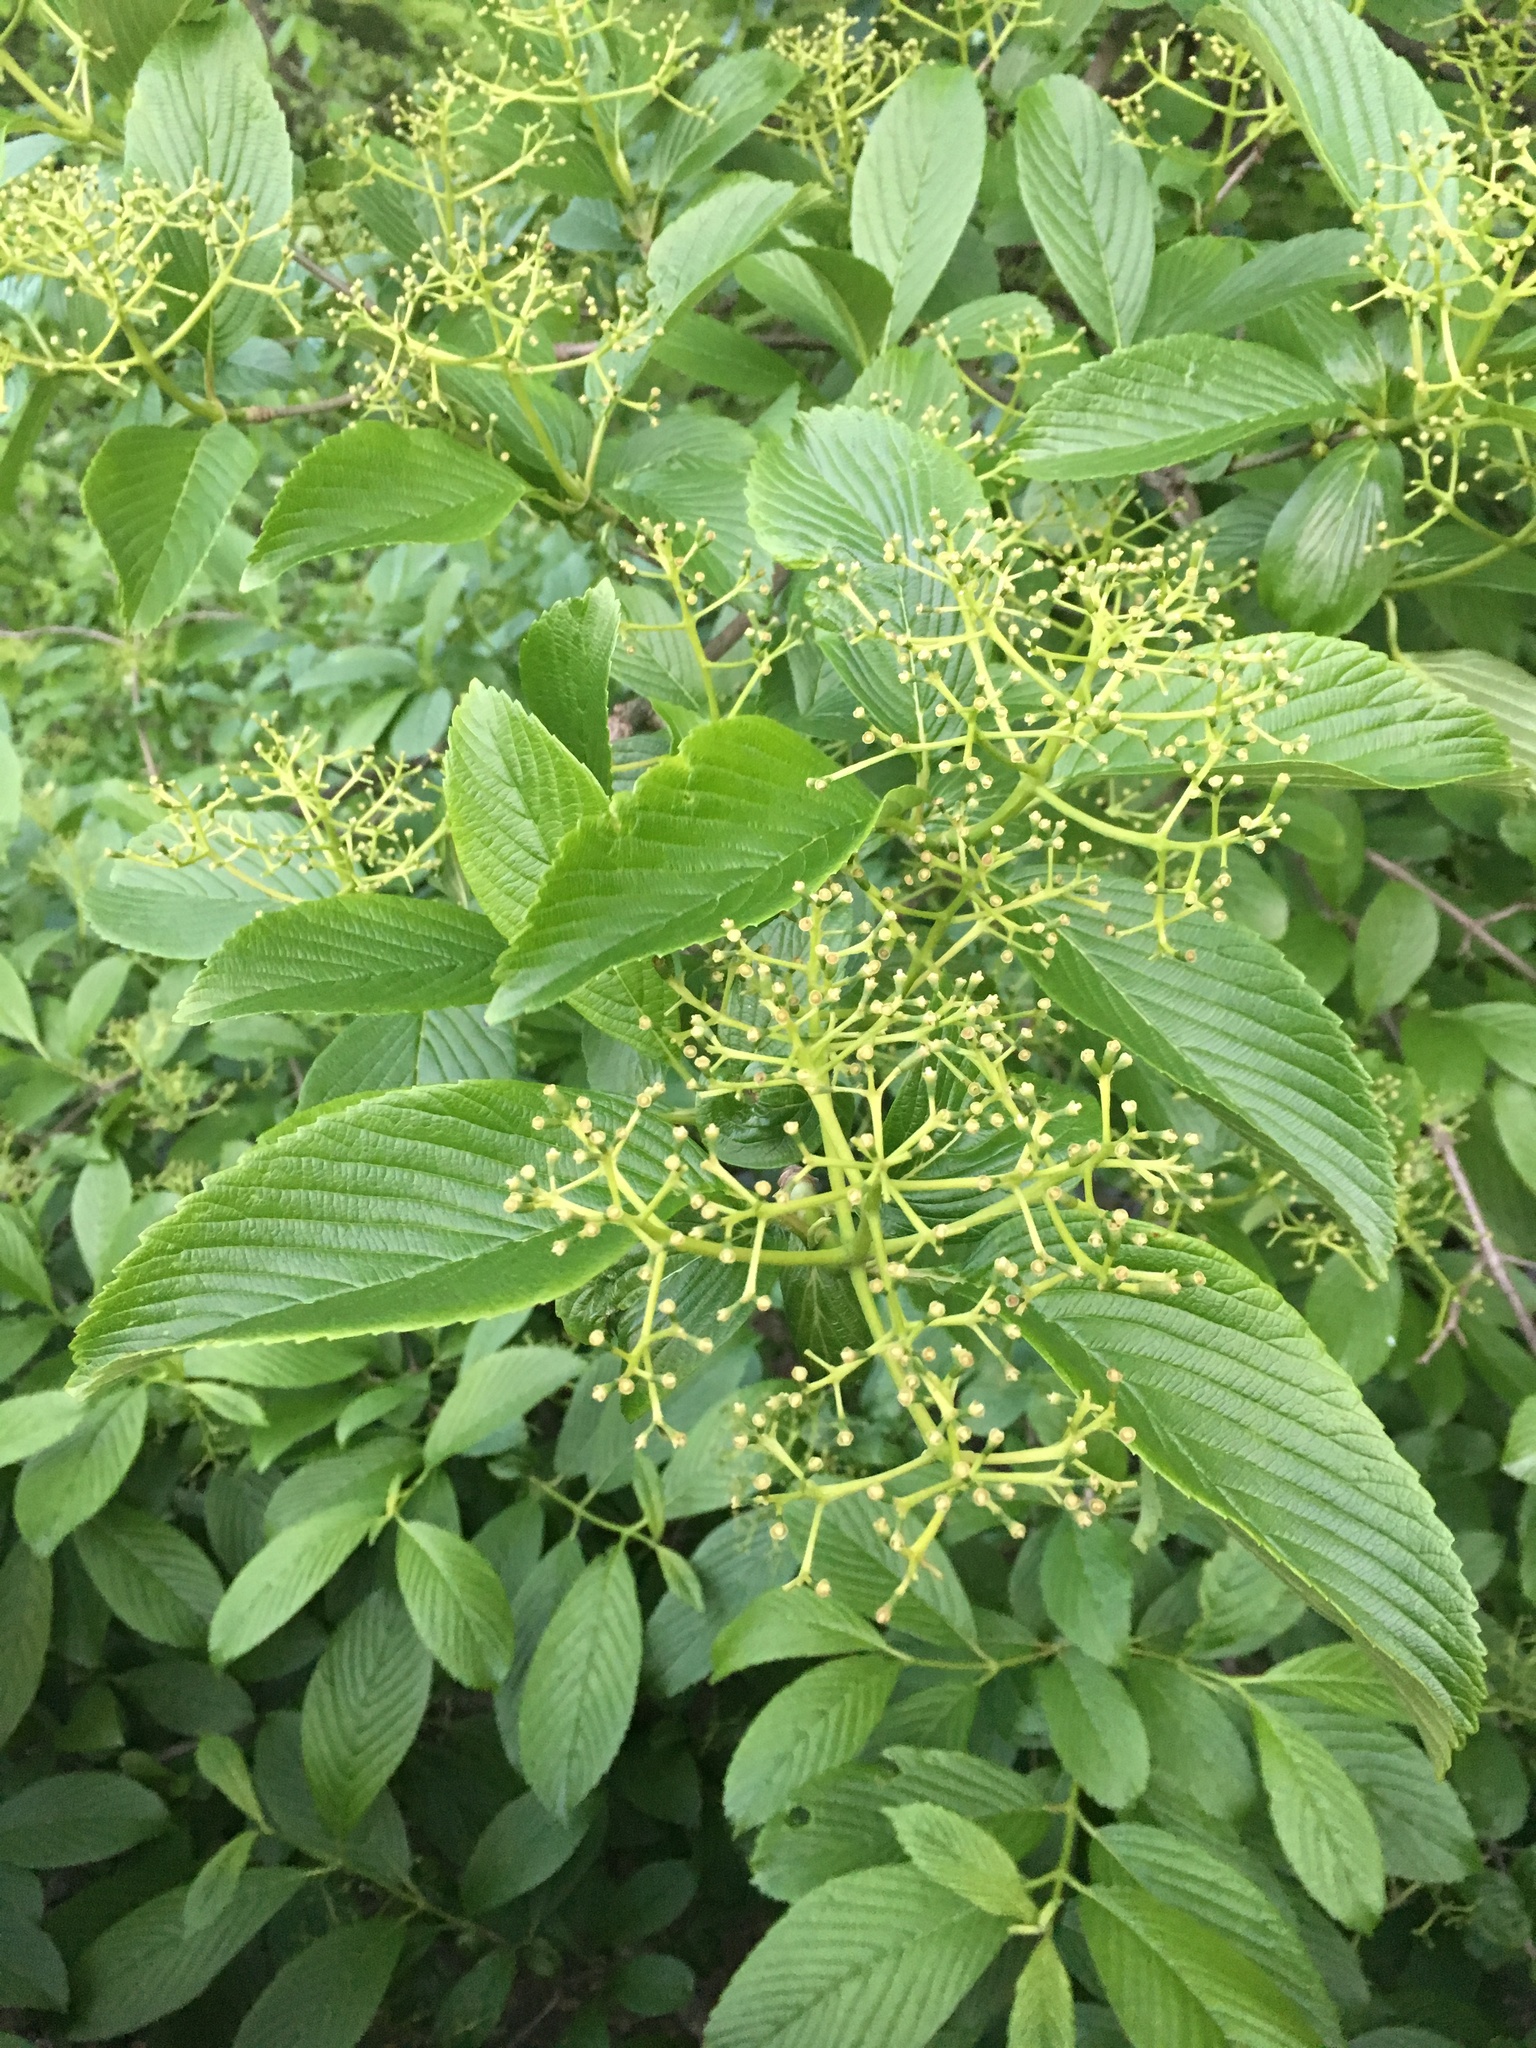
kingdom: Plantae
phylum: Tracheophyta
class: Magnoliopsida
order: Dipsacales
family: Viburnaceae
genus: Viburnum
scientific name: Viburnum sieboldii
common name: Siebold's arrowwood
